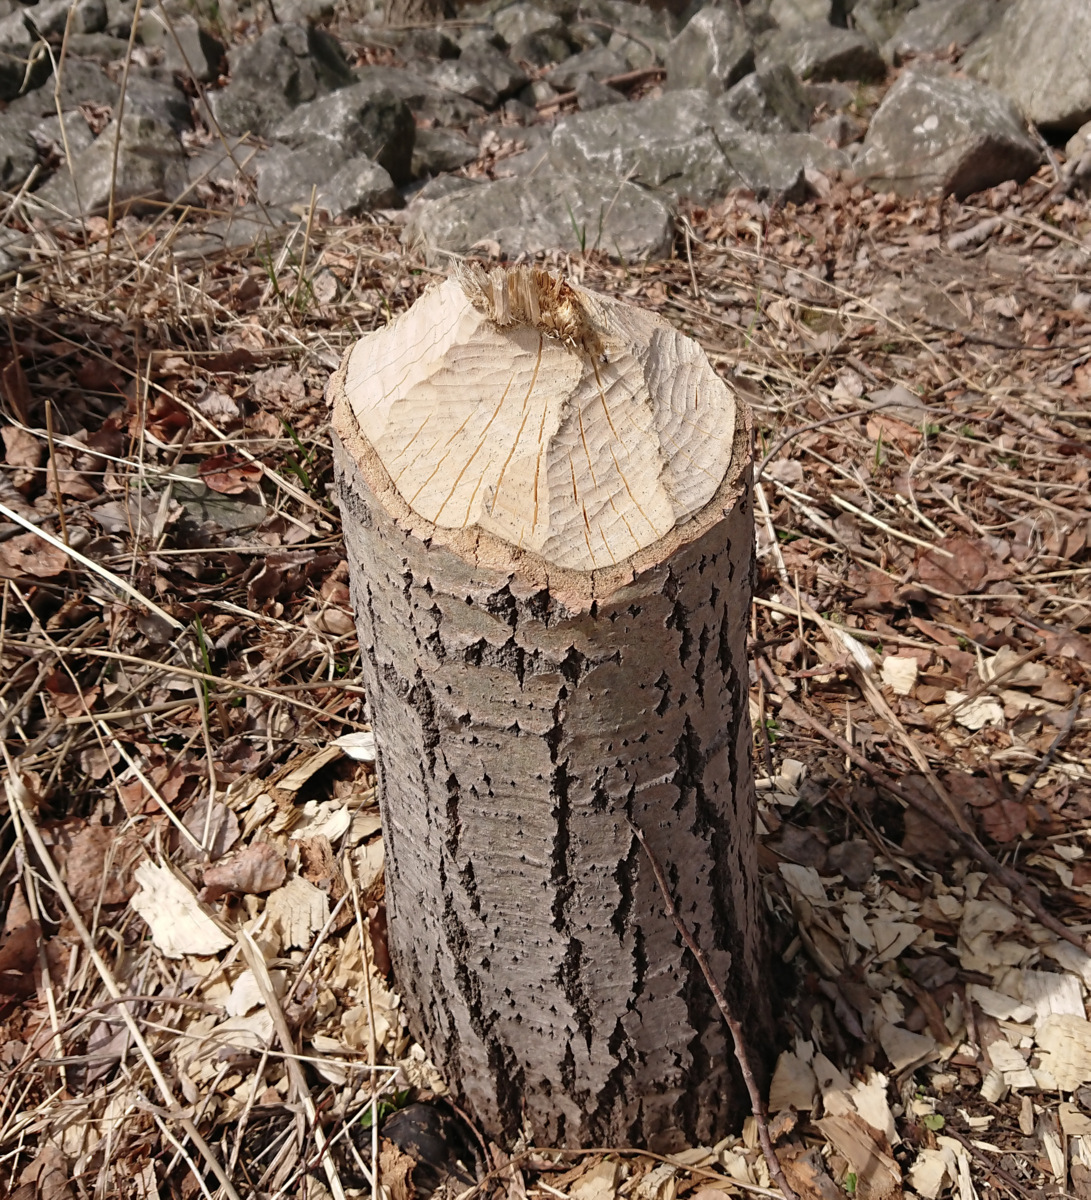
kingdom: Animalia
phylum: Chordata
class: Mammalia
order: Rodentia
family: Castoridae
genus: Castor
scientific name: Castor canadensis
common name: American beaver
